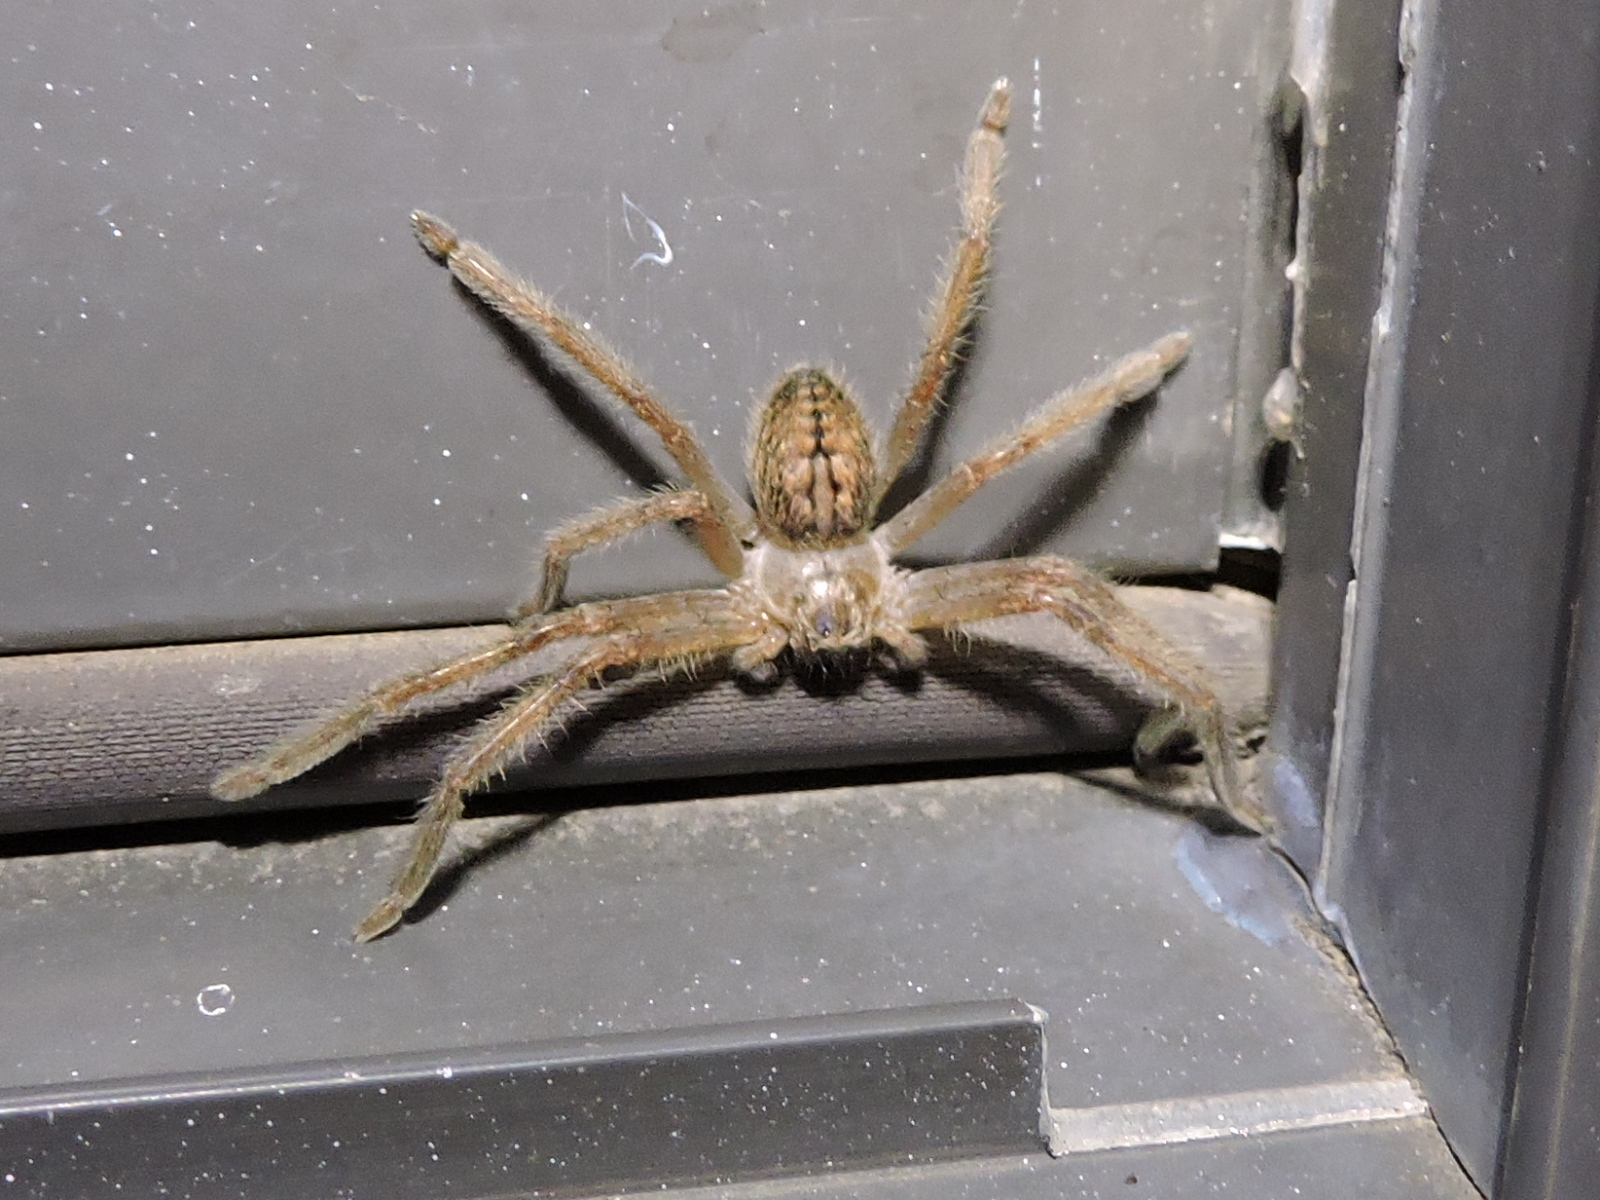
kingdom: Animalia
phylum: Arthropoda
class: Arachnida
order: Araneae
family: Sparassidae
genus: Olios
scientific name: Olios giganteus
